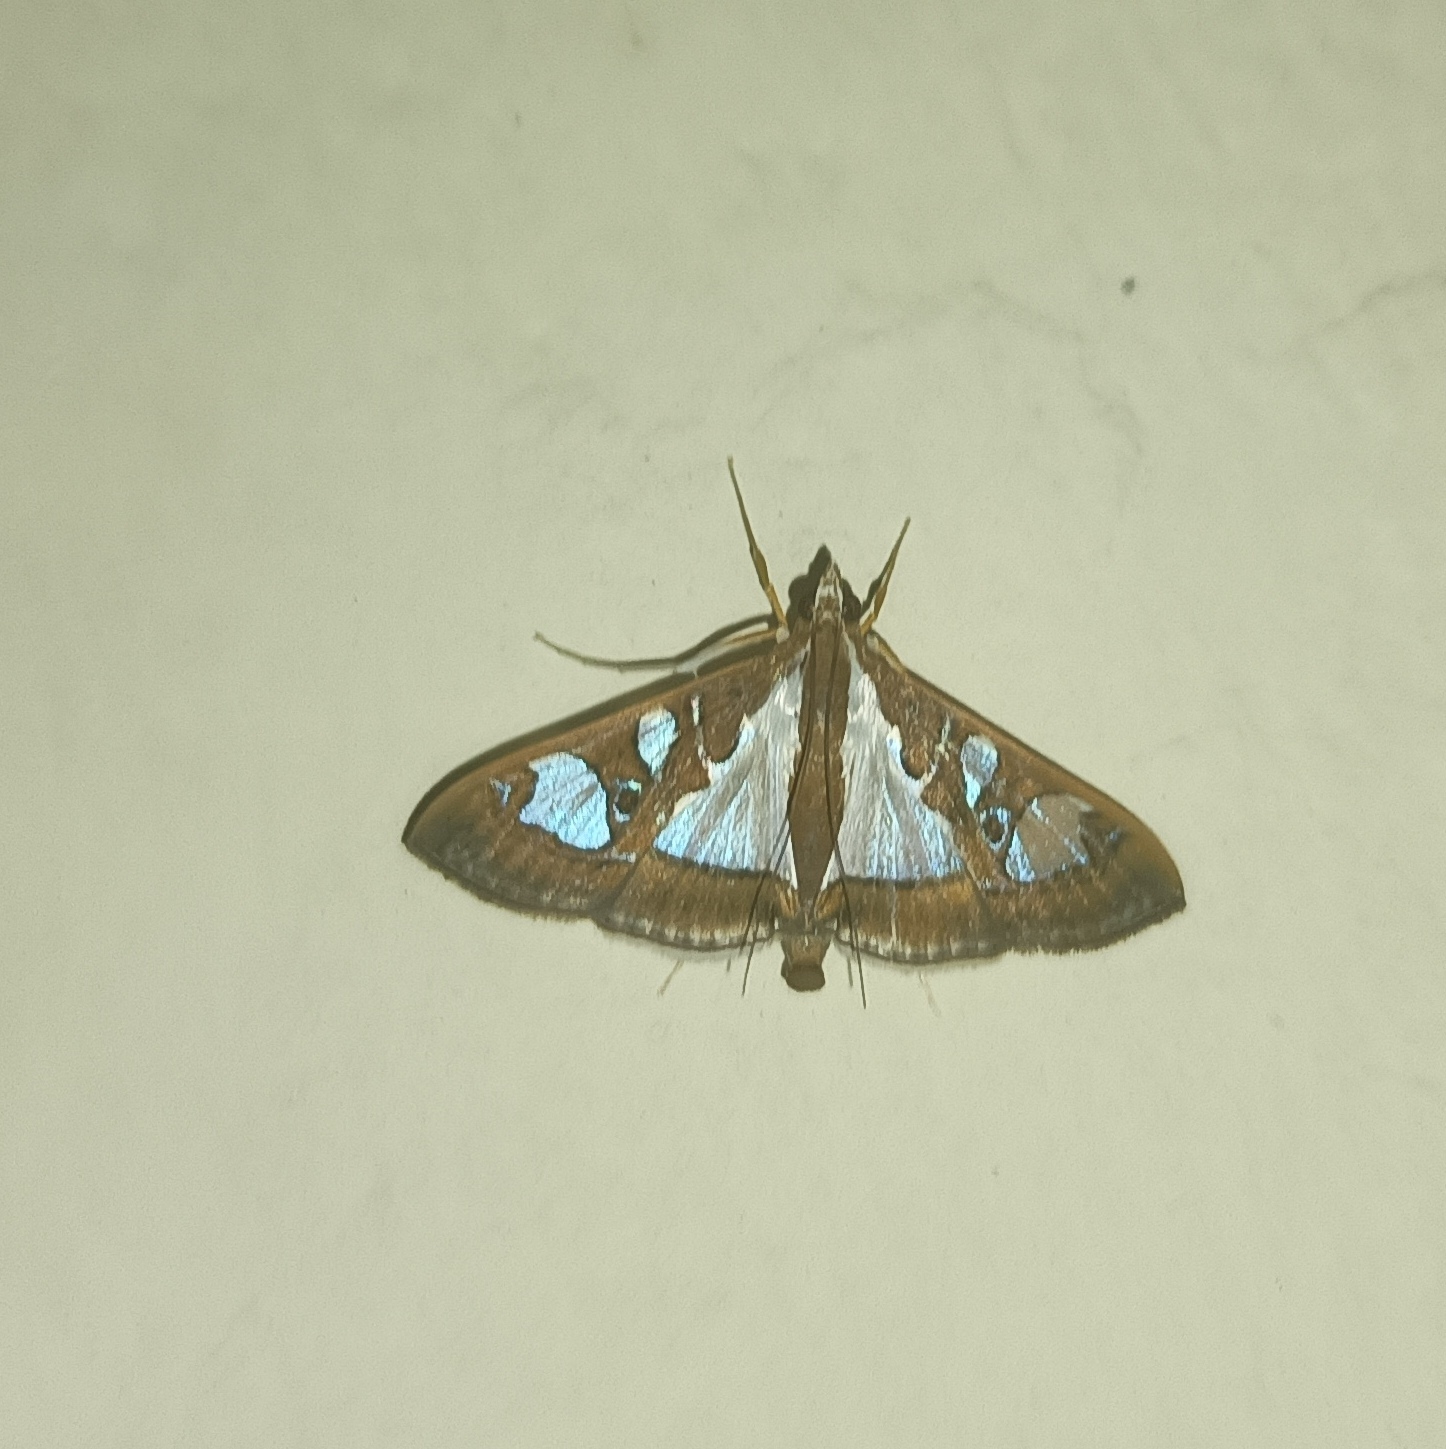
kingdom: Animalia
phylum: Arthropoda
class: Insecta
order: Lepidoptera
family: Crambidae
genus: Glyphodes
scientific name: Glyphodes bivitralis
